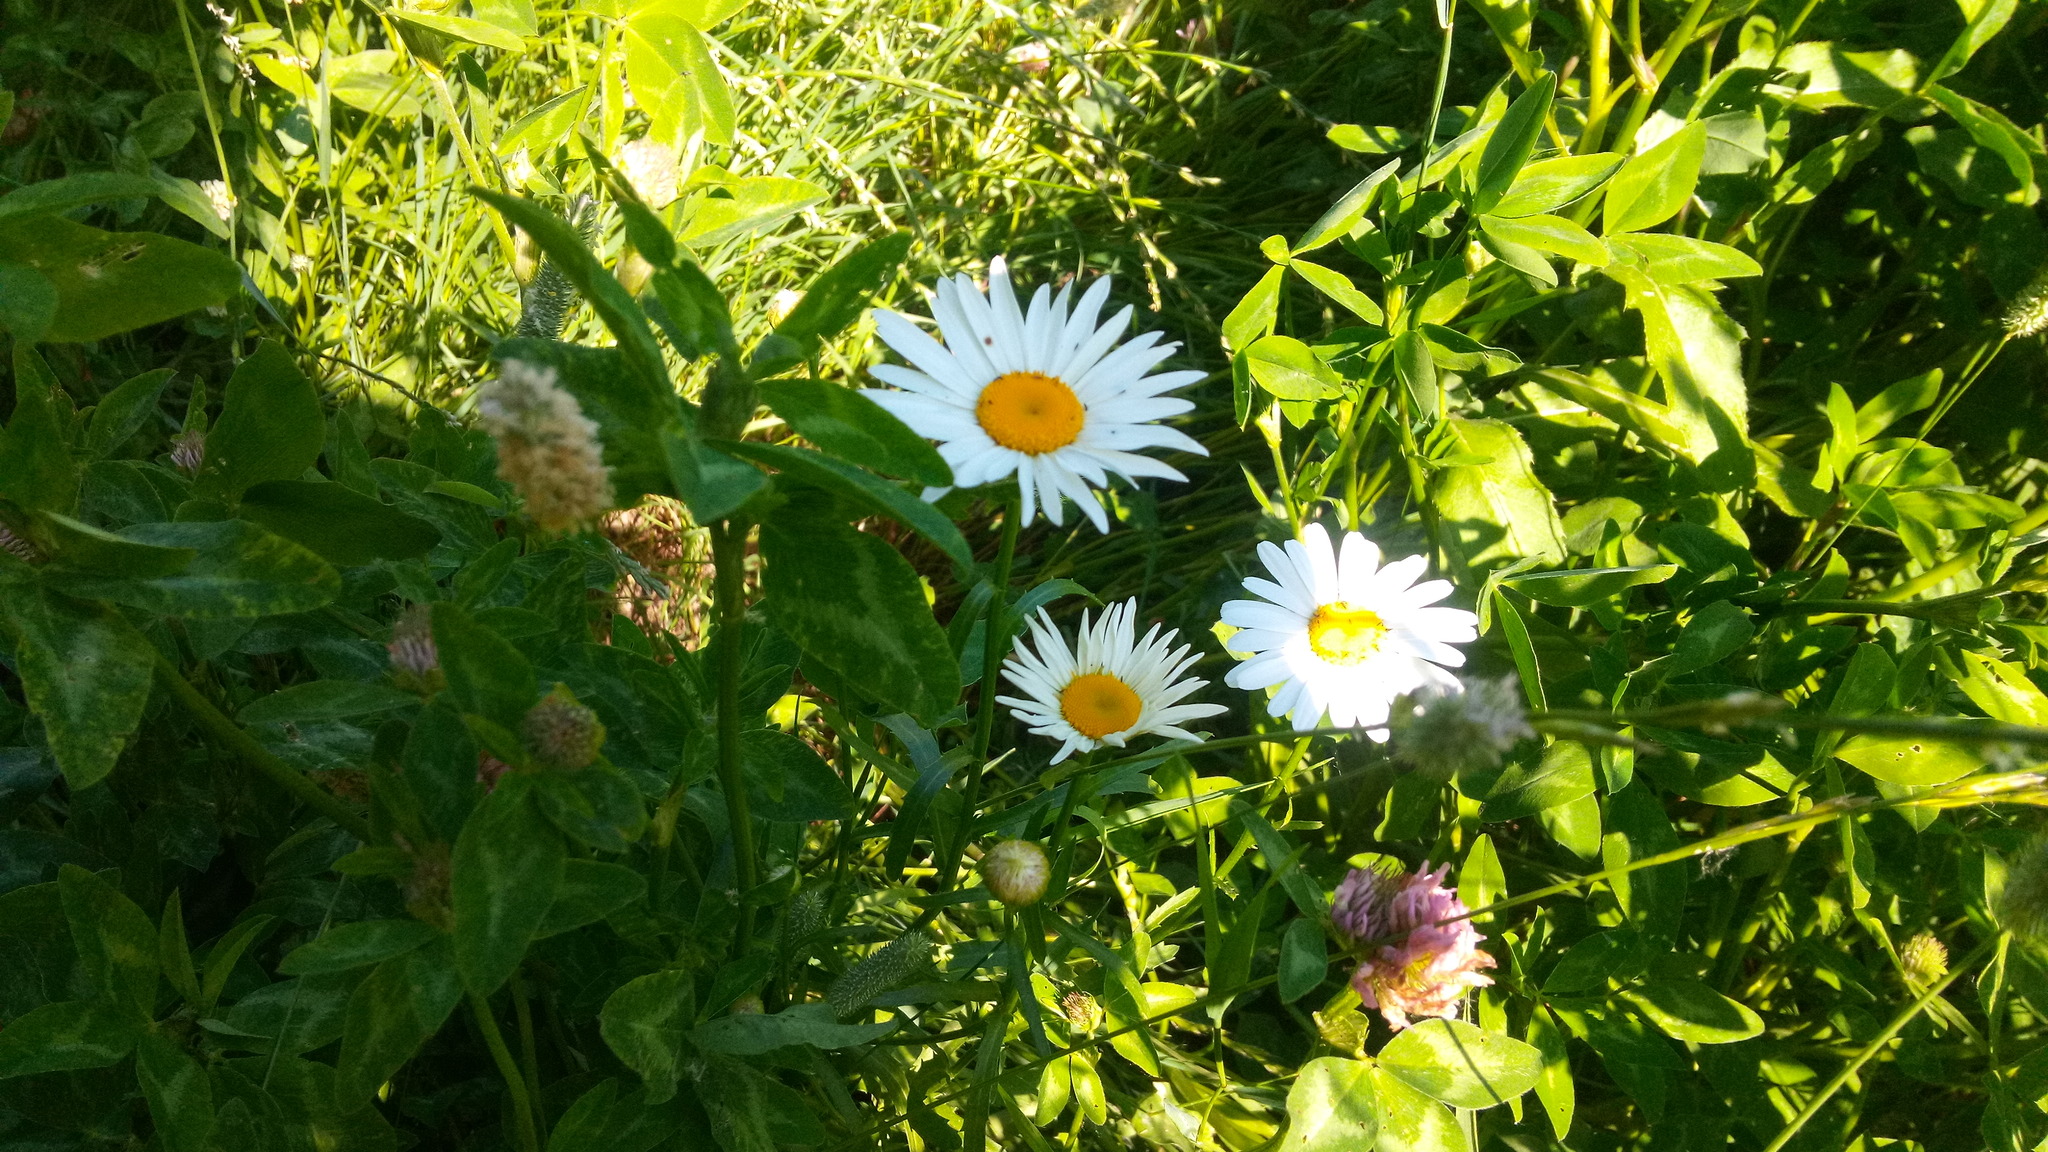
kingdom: Plantae
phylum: Tracheophyta
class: Magnoliopsida
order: Asterales
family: Asteraceae
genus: Leucanthemum
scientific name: Leucanthemum vulgare
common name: Oxeye daisy
